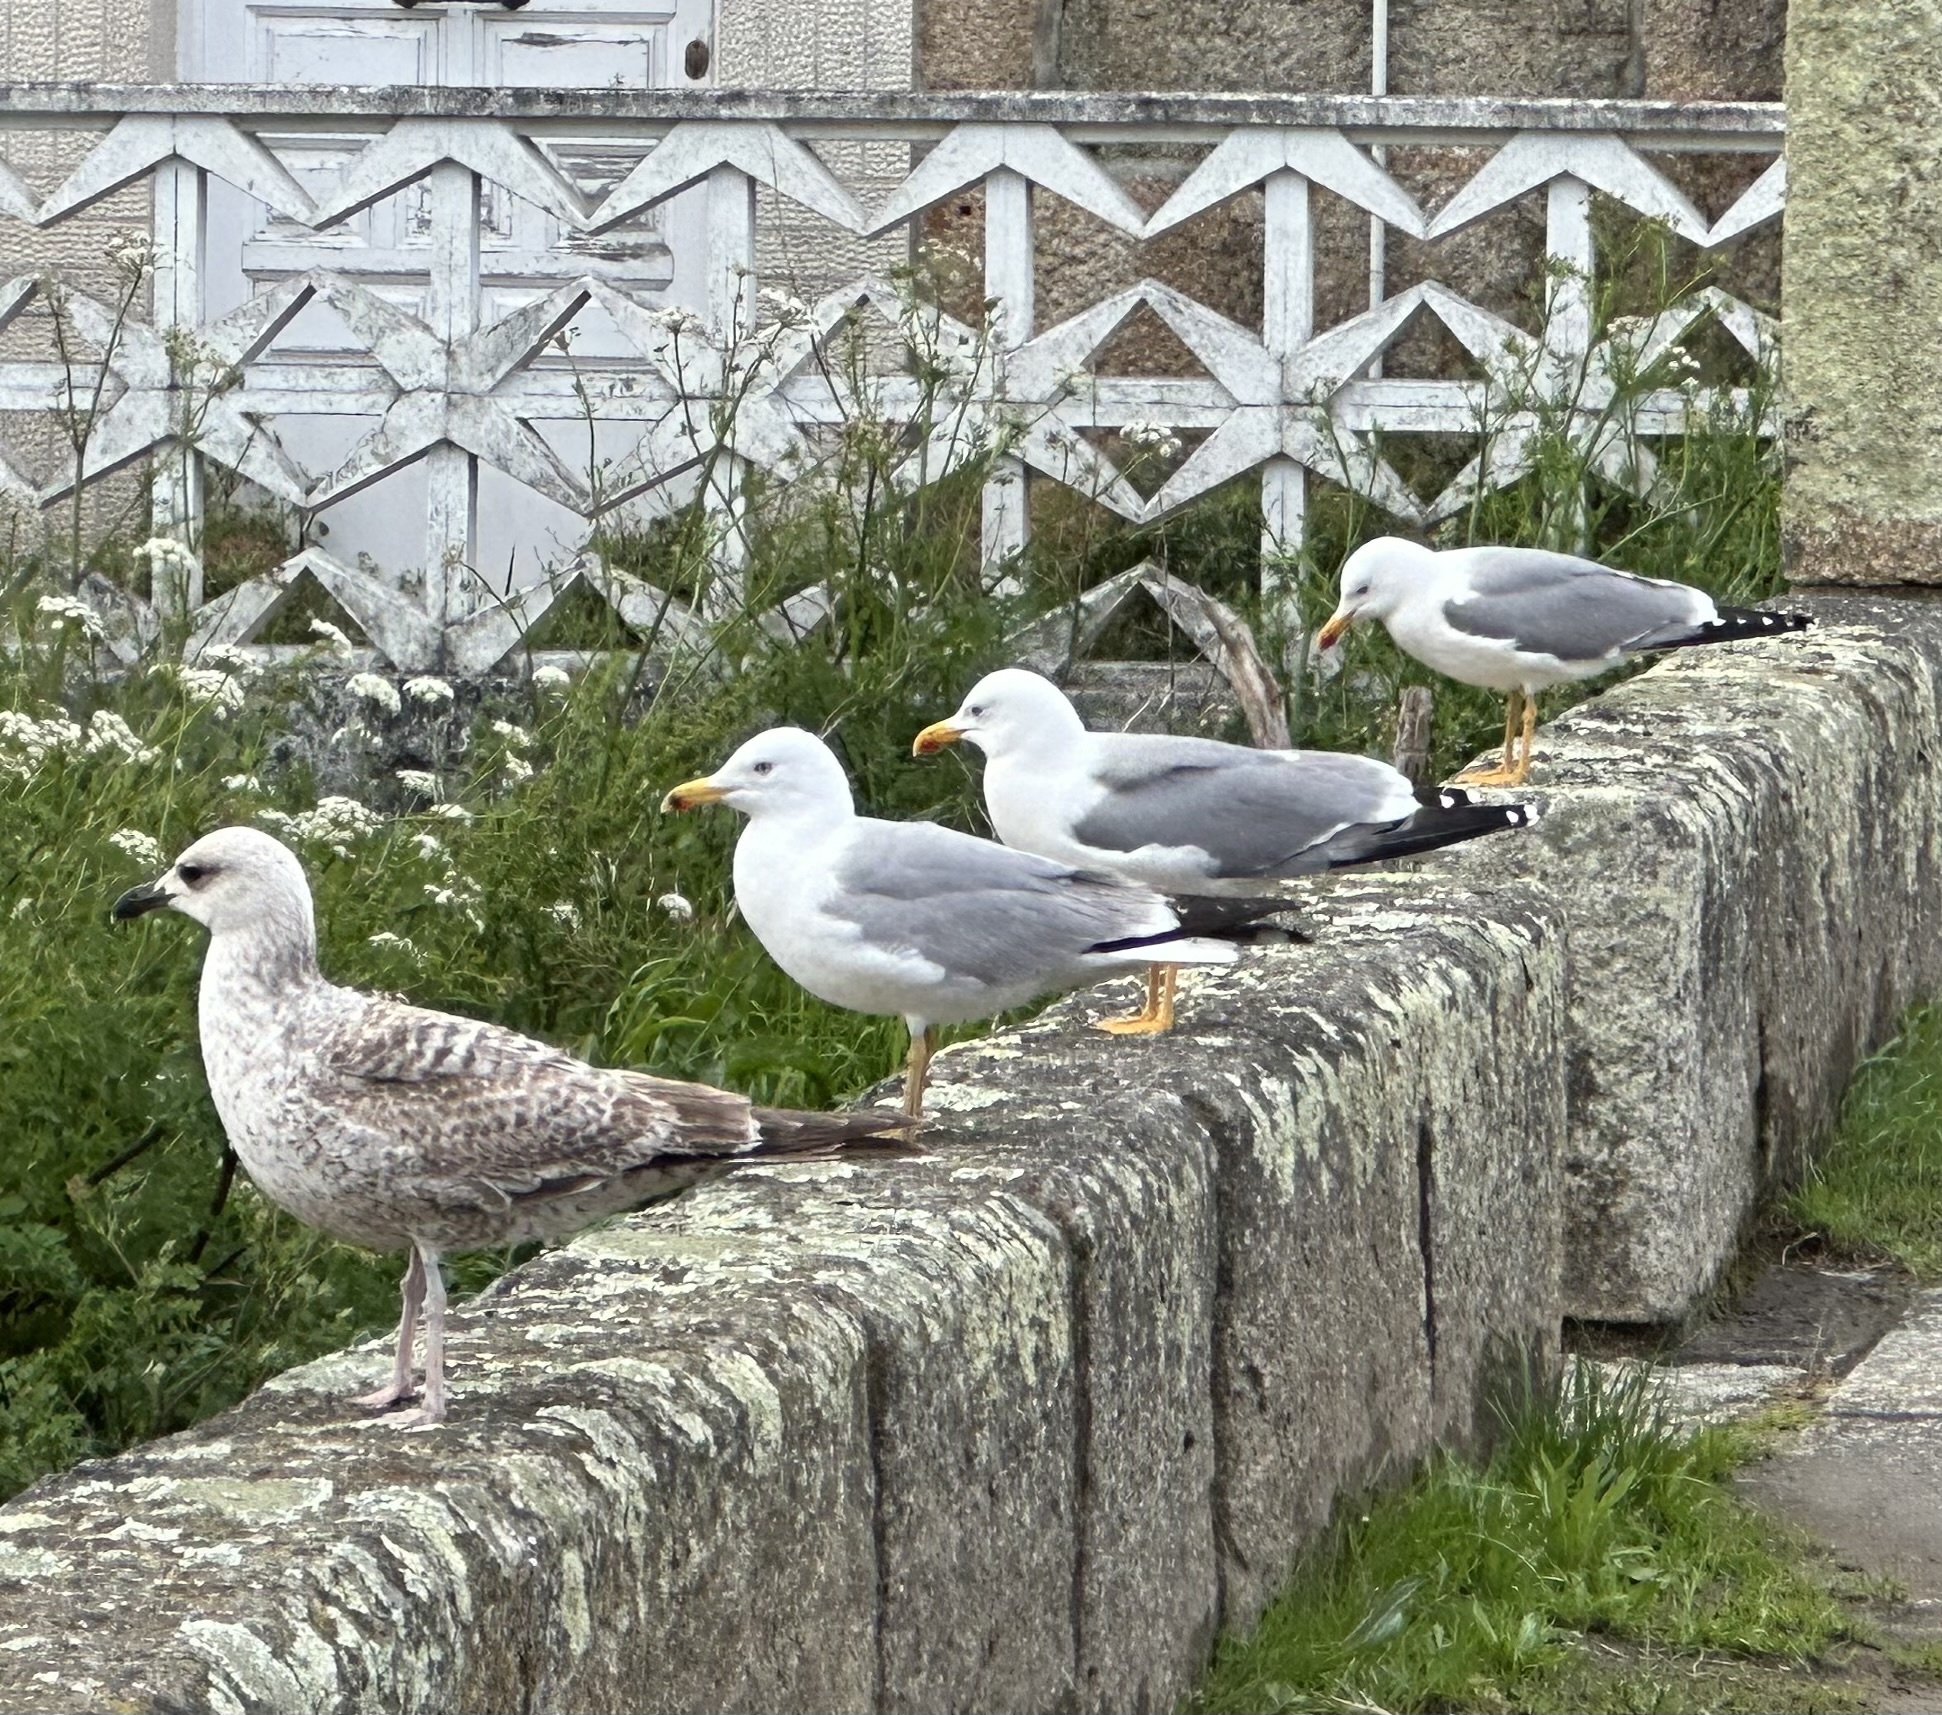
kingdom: Animalia
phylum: Chordata
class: Aves
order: Charadriiformes
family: Laridae
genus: Larus
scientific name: Larus michahellis
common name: Yellow-legged gull
